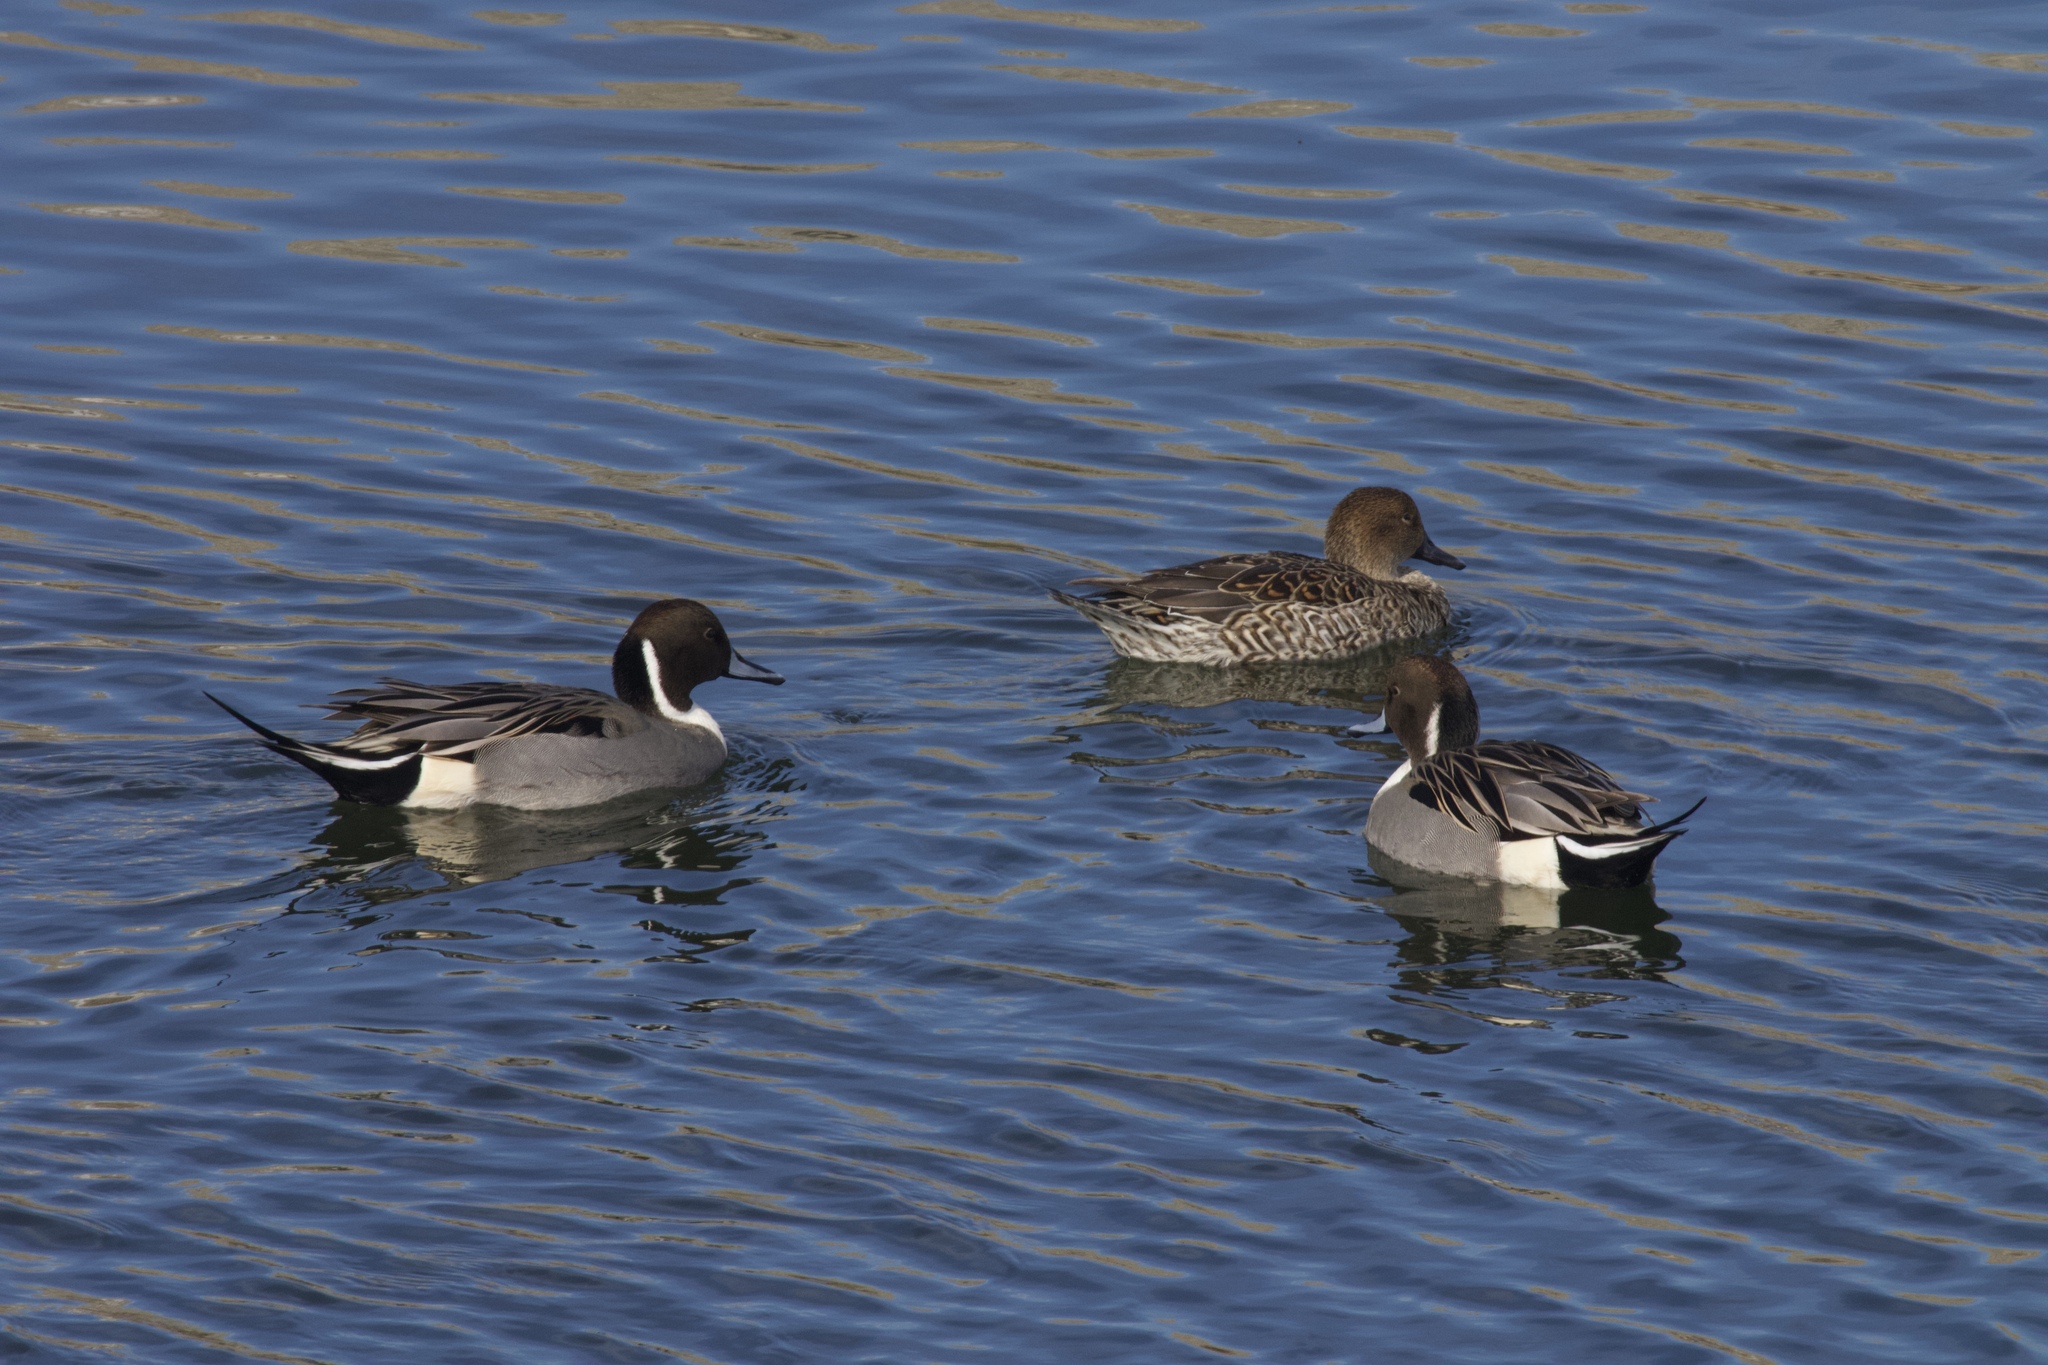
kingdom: Animalia
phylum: Chordata
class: Aves
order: Anseriformes
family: Anatidae
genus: Anas
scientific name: Anas acuta
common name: Northern pintail
